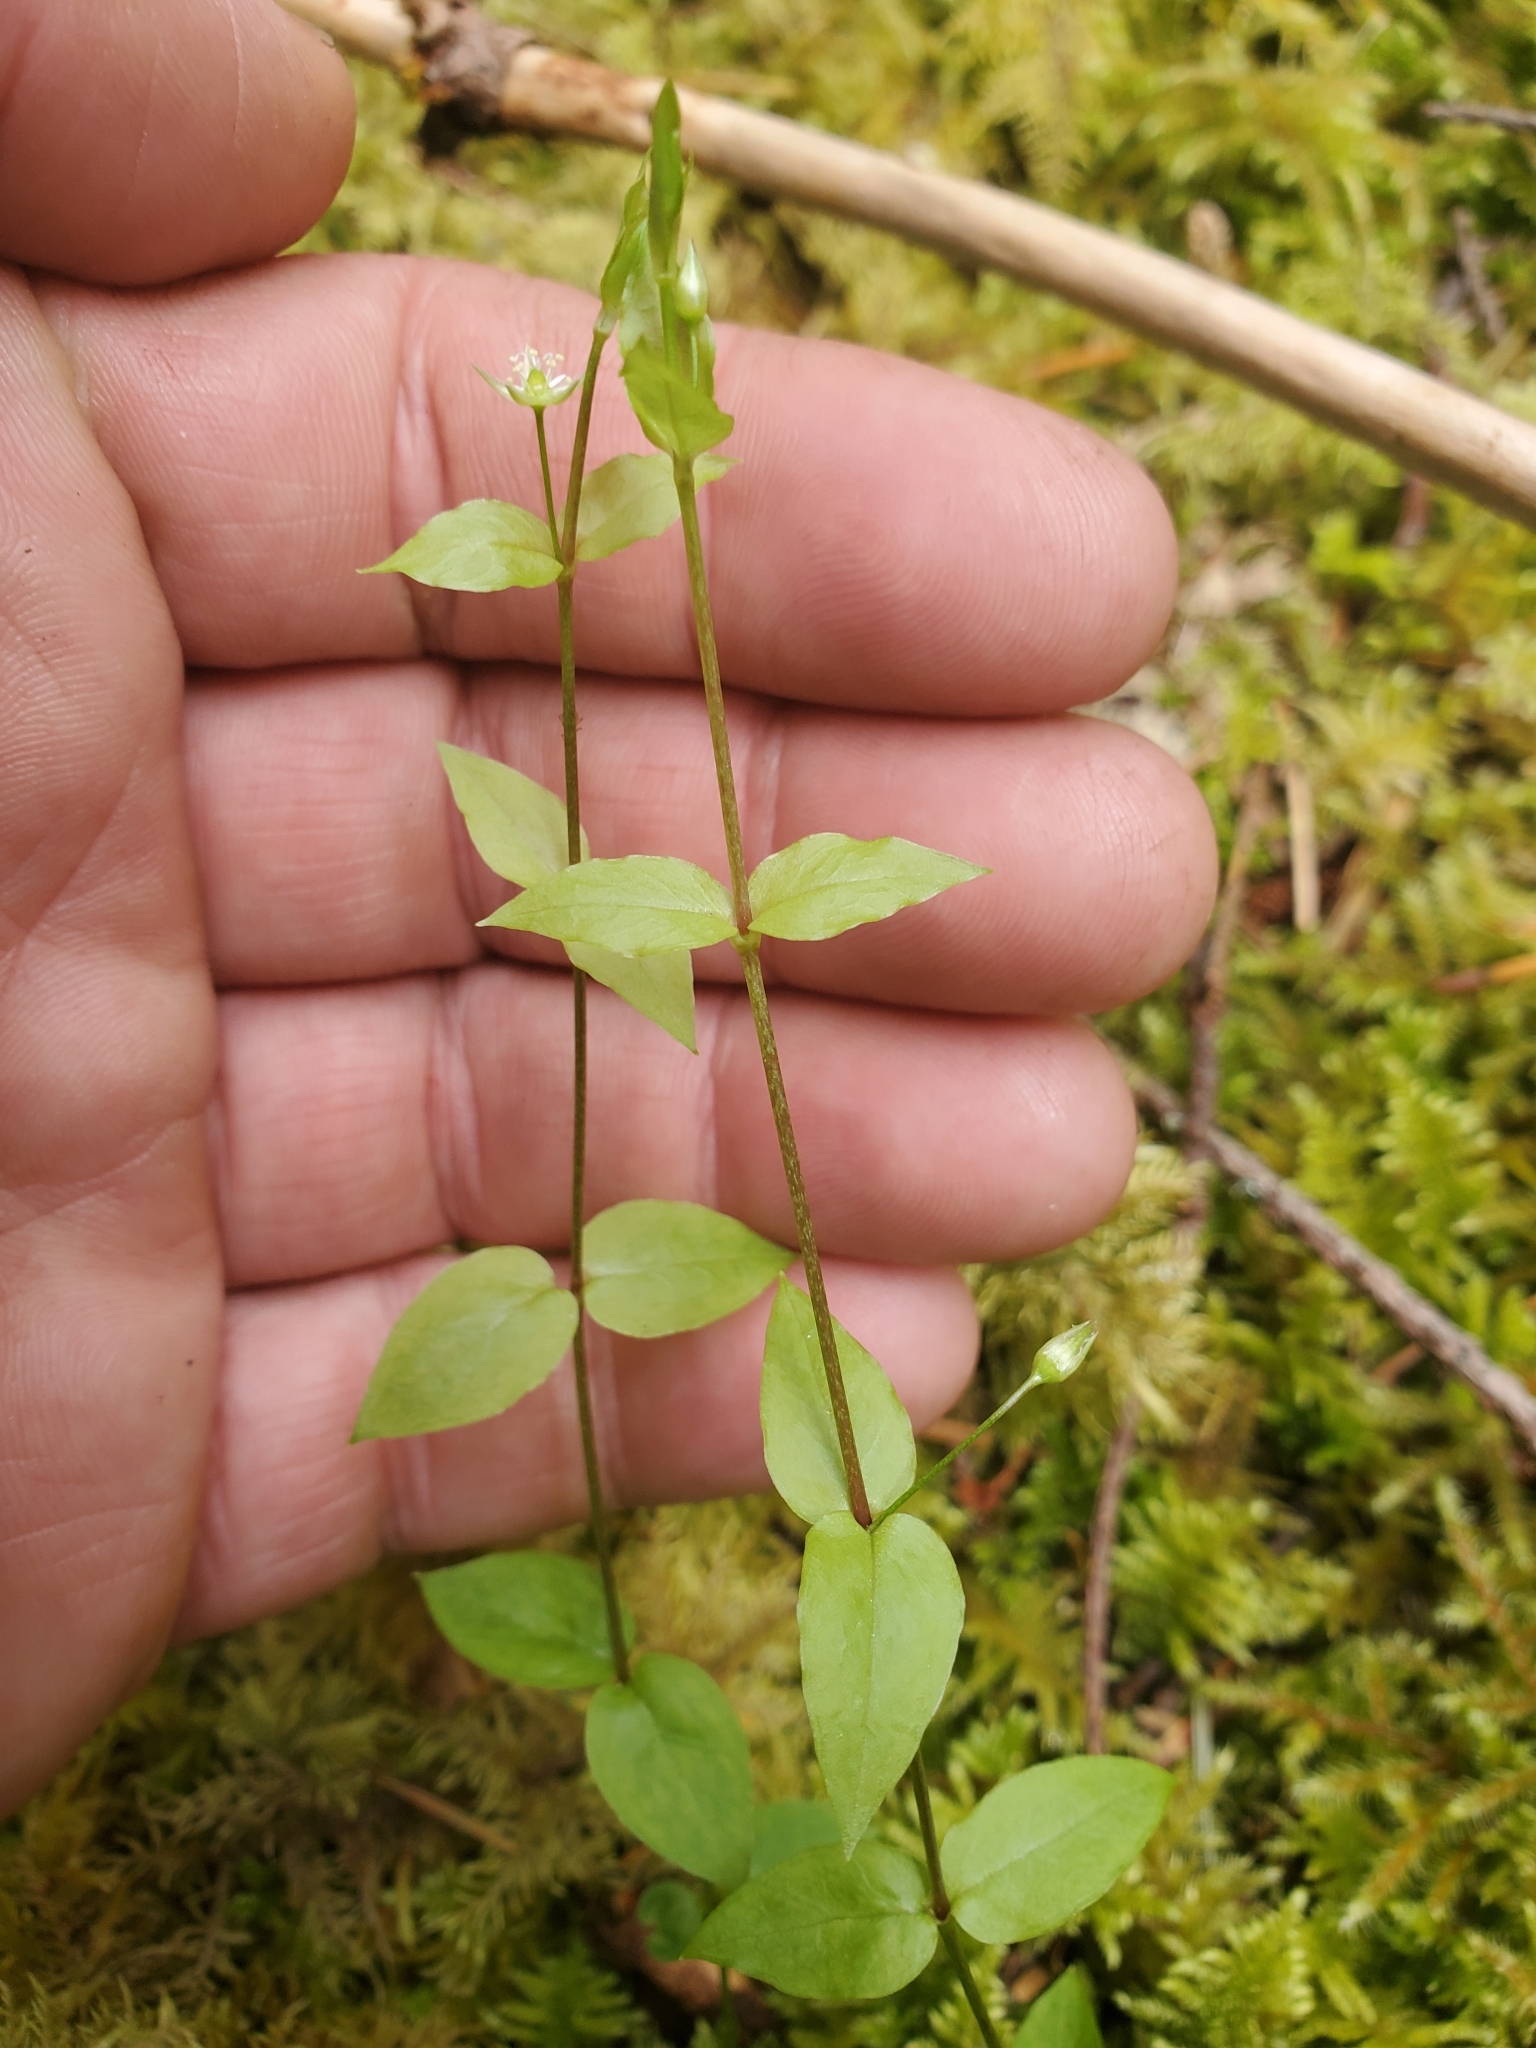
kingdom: Plantae
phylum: Tracheophyta
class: Magnoliopsida
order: Caryophyllales
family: Caryophyllaceae
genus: Stellaria
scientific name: Stellaria crispa
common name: Crimped stitchwort
